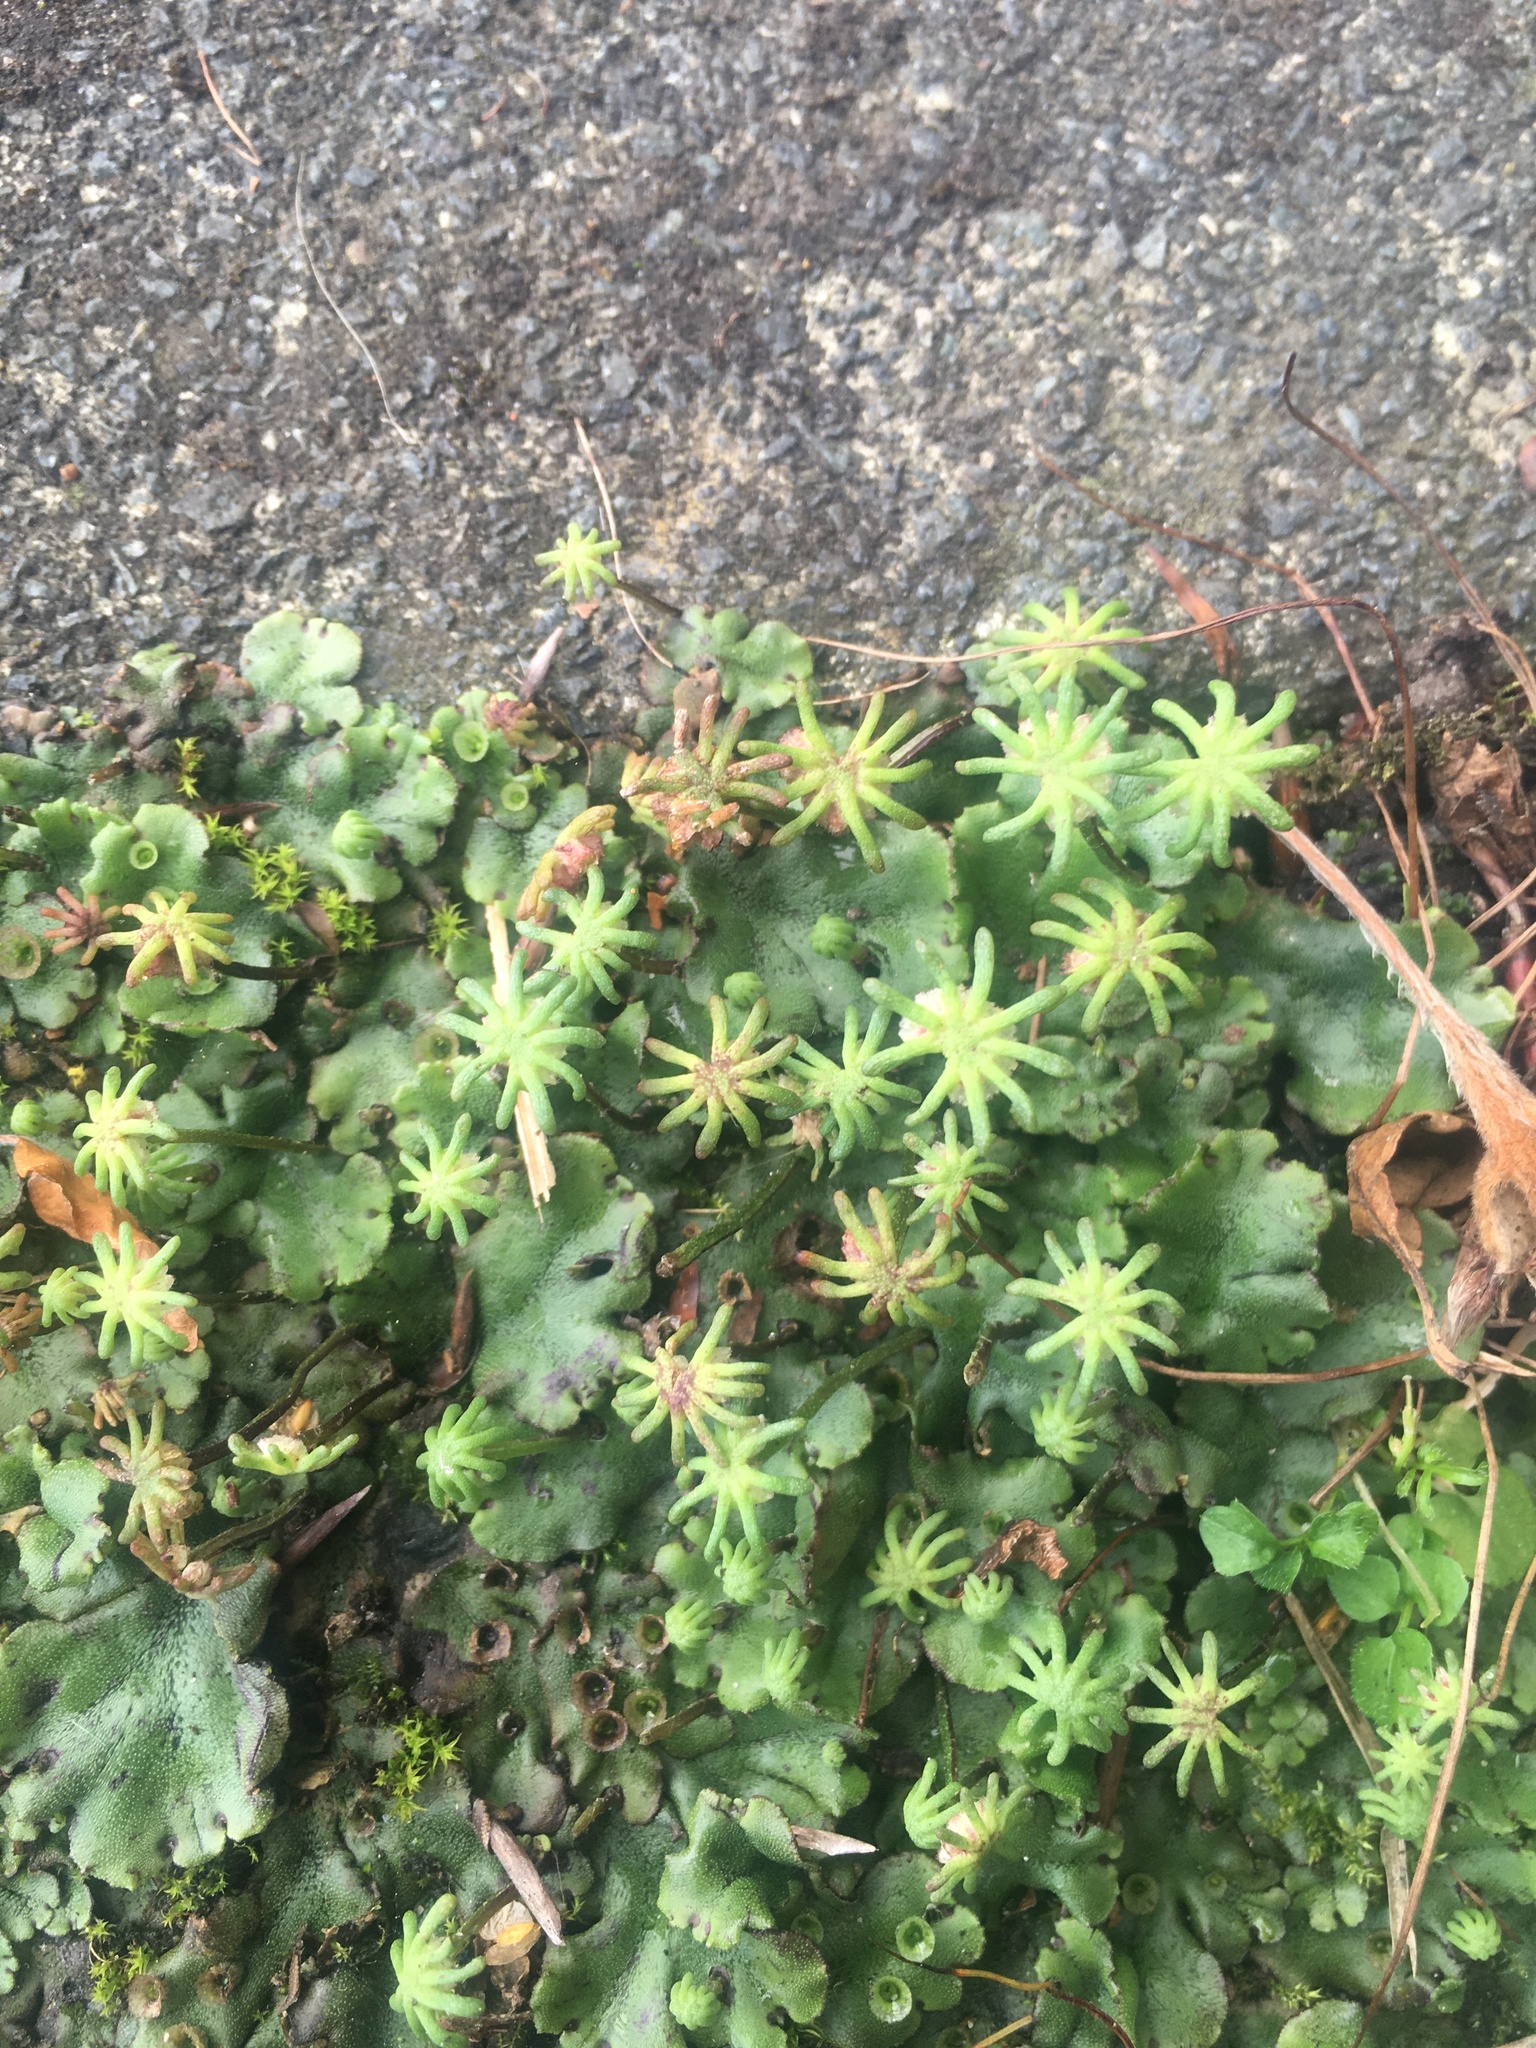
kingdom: Plantae
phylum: Marchantiophyta
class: Marchantiopsida
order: Marchantiales
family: Marchantiaceae
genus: Marchantia
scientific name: Marchantia polymorpha
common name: Common liverwort
